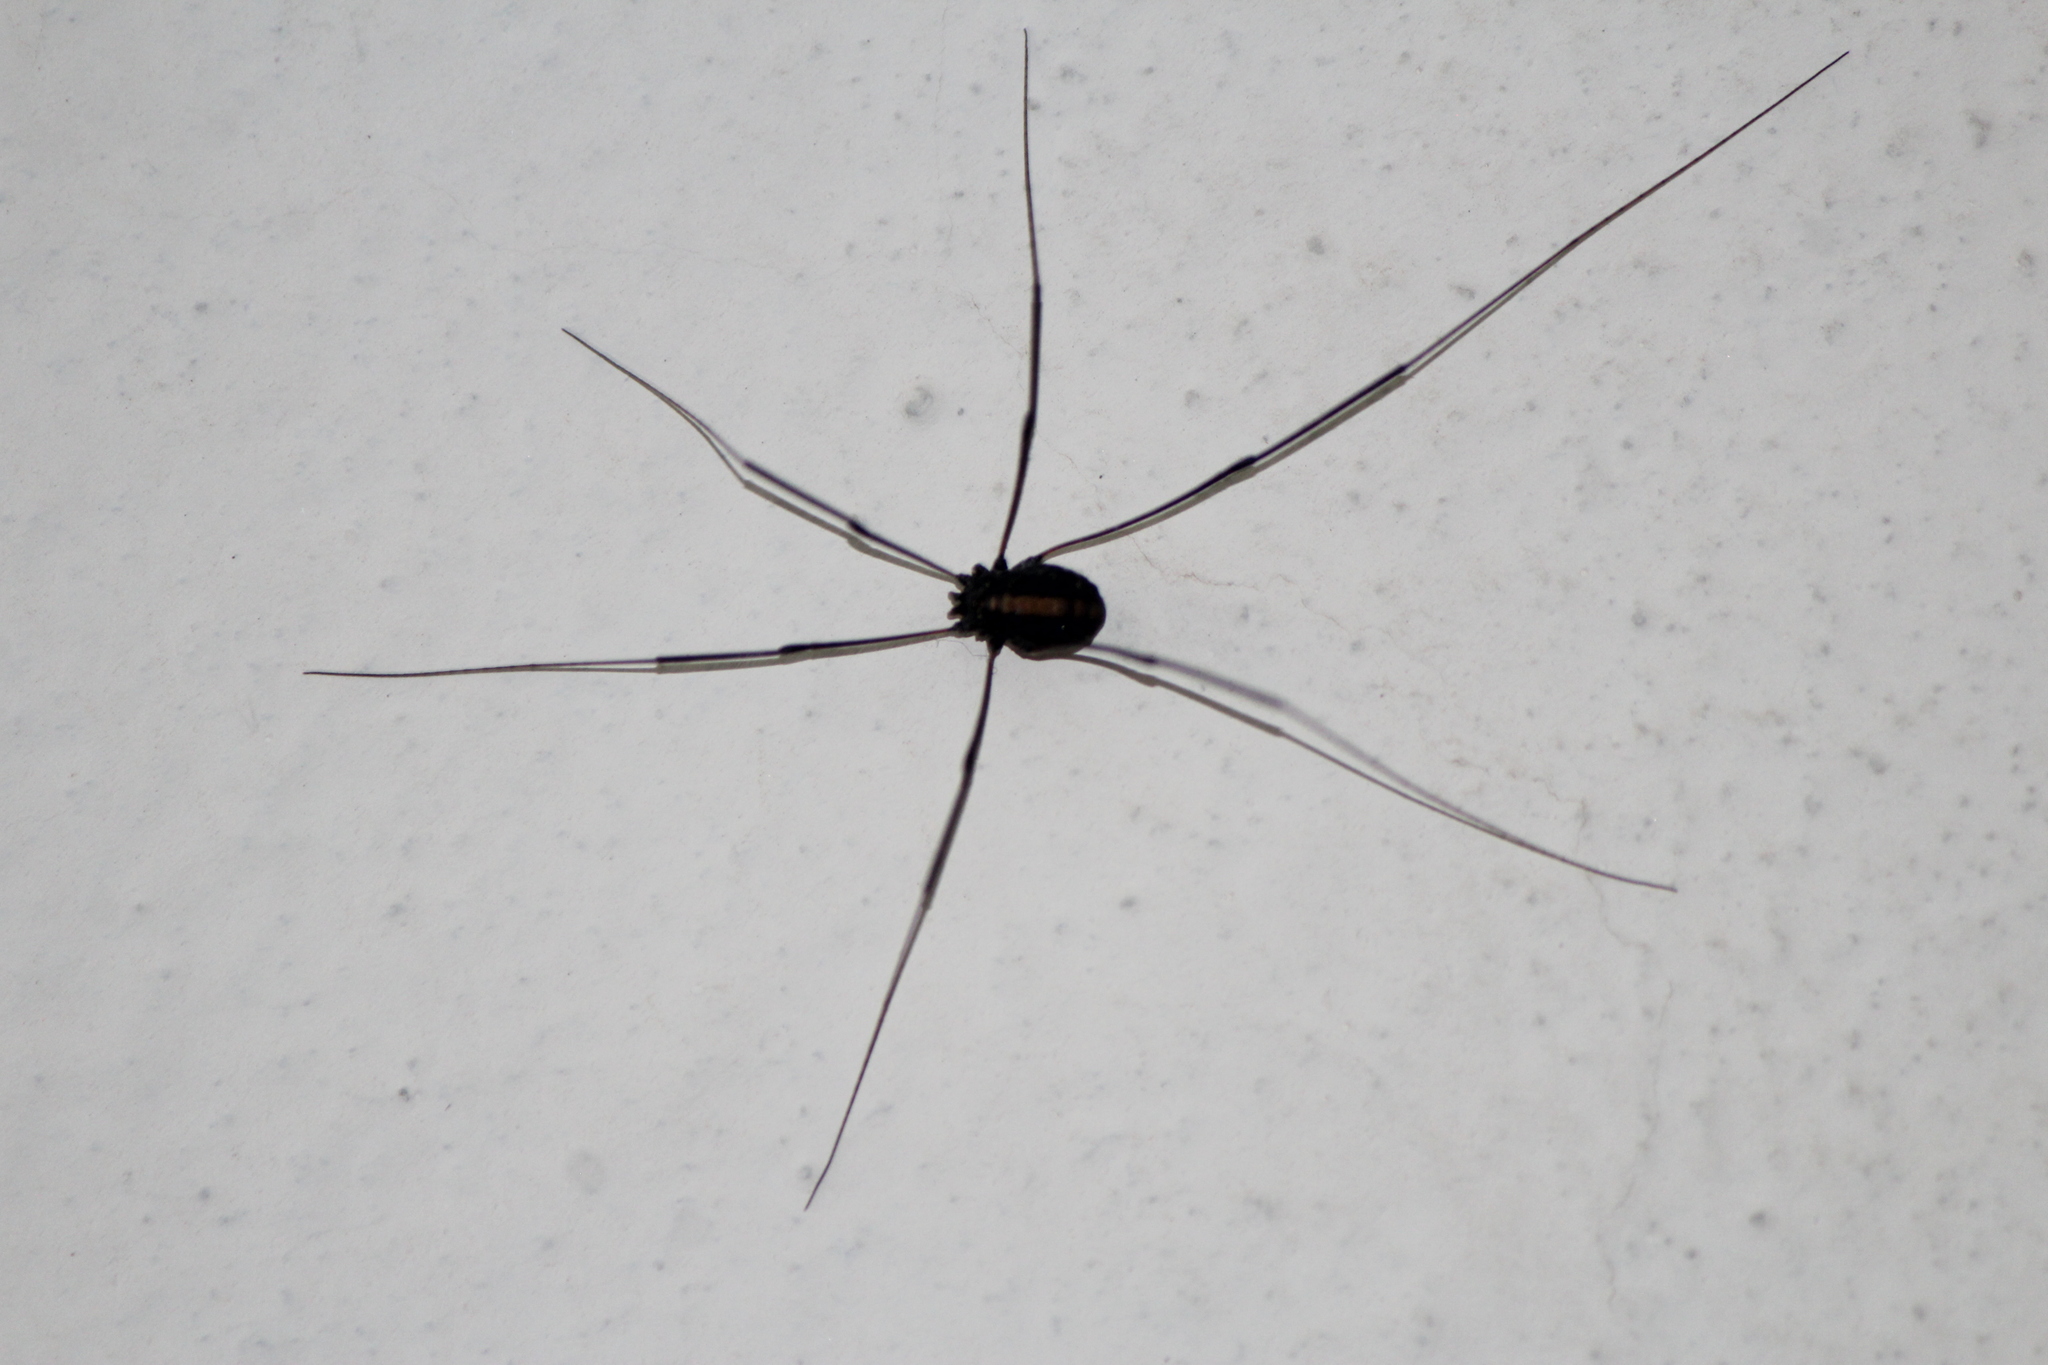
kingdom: Animalia
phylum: Arthropoda
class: Arachnida
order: Opiliones
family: Sclerosomatidae
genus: Paranelima
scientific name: Paranelima albalineata
